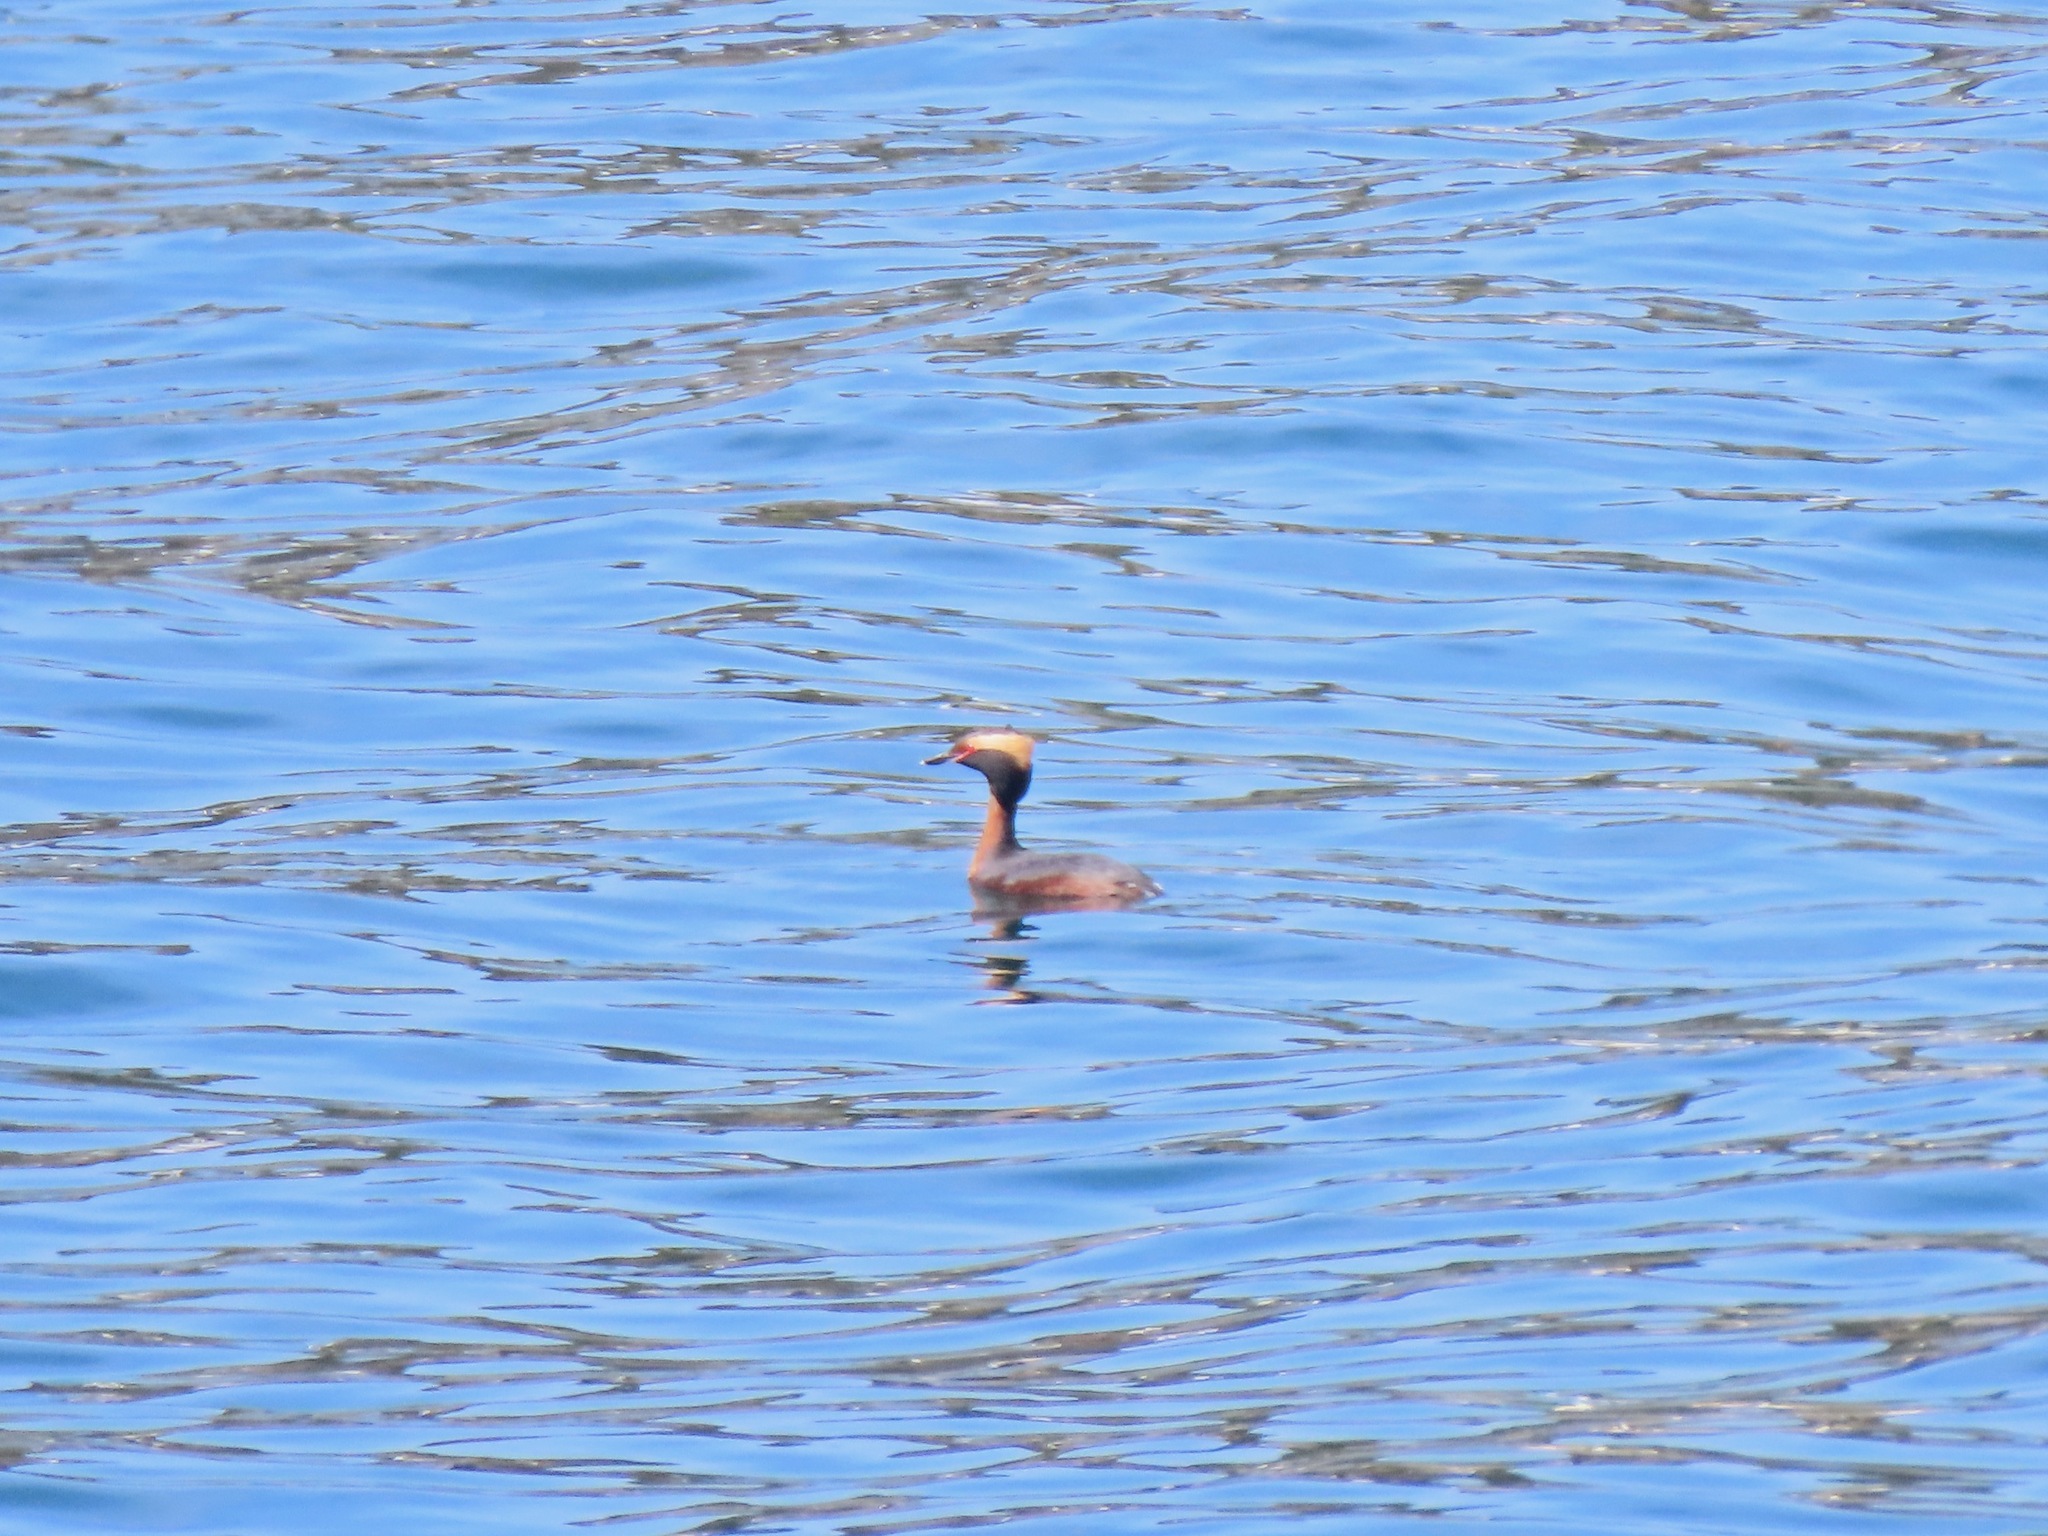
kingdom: Animalia
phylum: Chordata
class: Aves
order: Podicipediformes
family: Podicipedidae
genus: Podiceps
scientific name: Podiceps auritus
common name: Horned grebe
